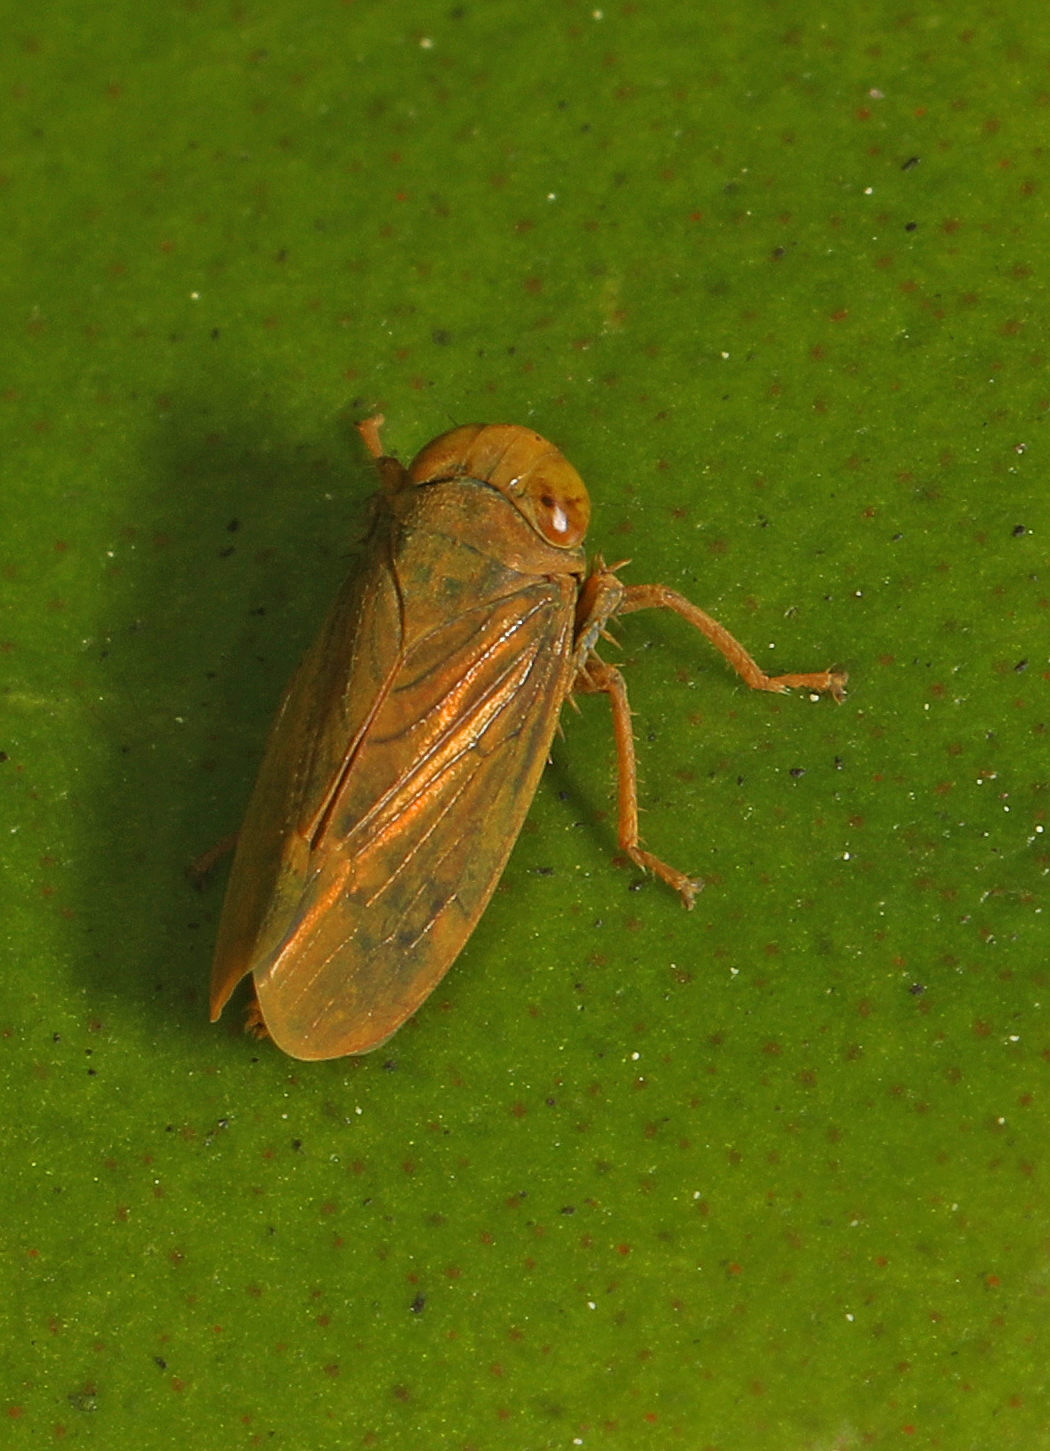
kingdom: Animalia
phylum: Arthropoda
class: Insecta
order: Hemiptera
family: Cicadellidae
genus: Jikradia
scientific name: Jikradia olitoria
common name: Coppery leafhopper
